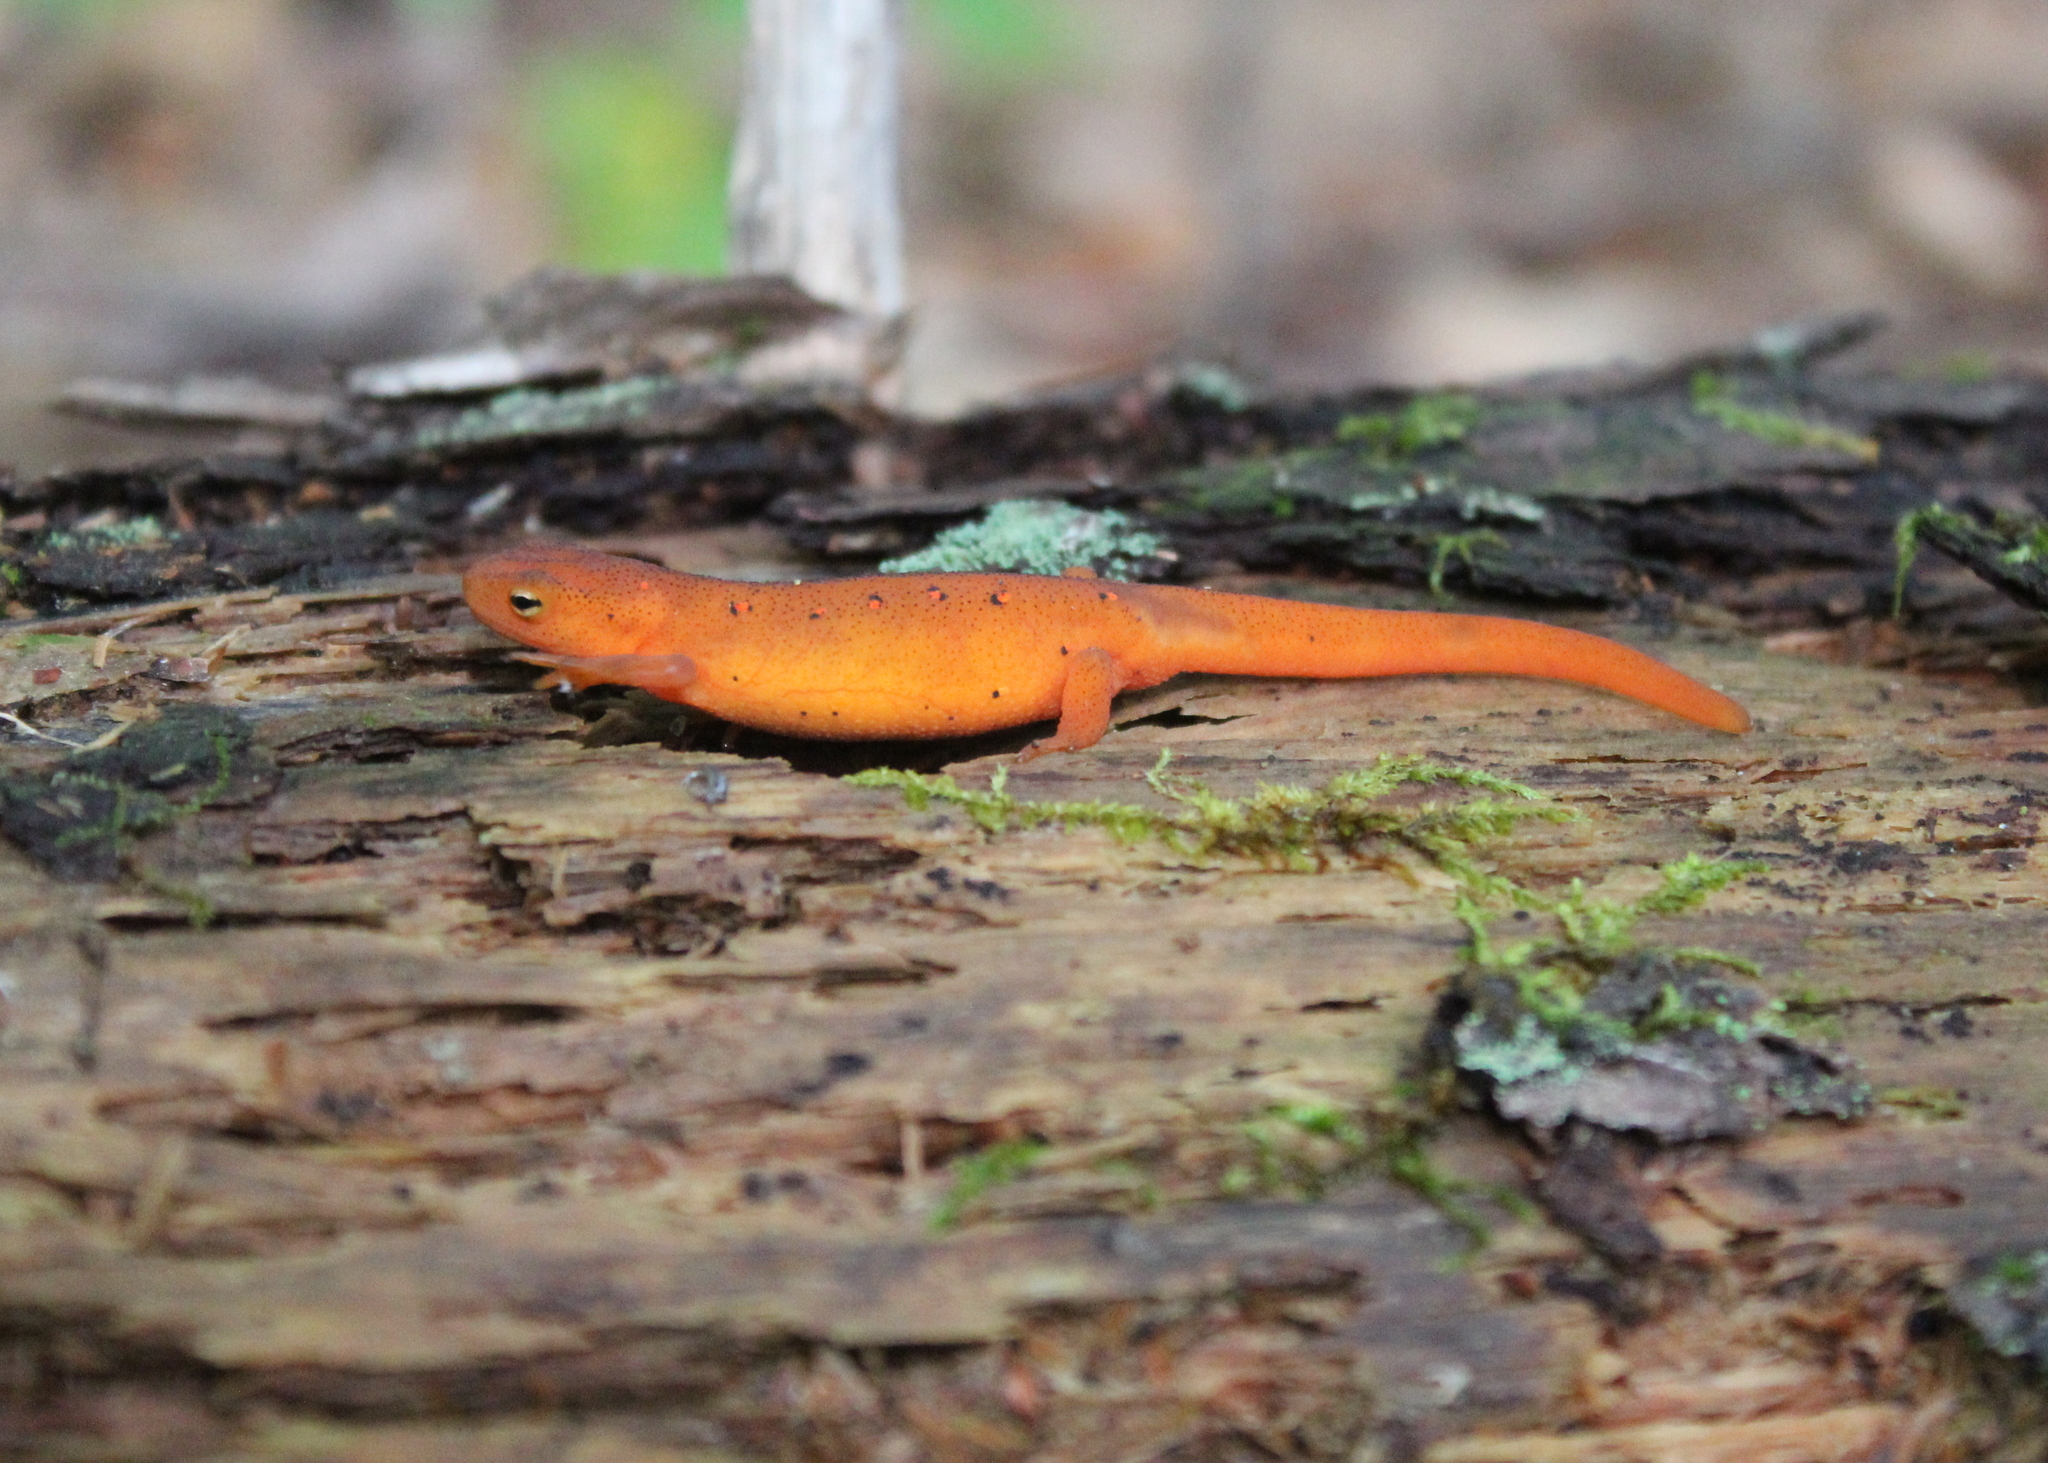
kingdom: Animalia
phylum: Chordata
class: Amphibia
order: Caudata
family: Salamandridae
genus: Notophthalmus
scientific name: Notophthalmus viridescens
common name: Eastern newt
